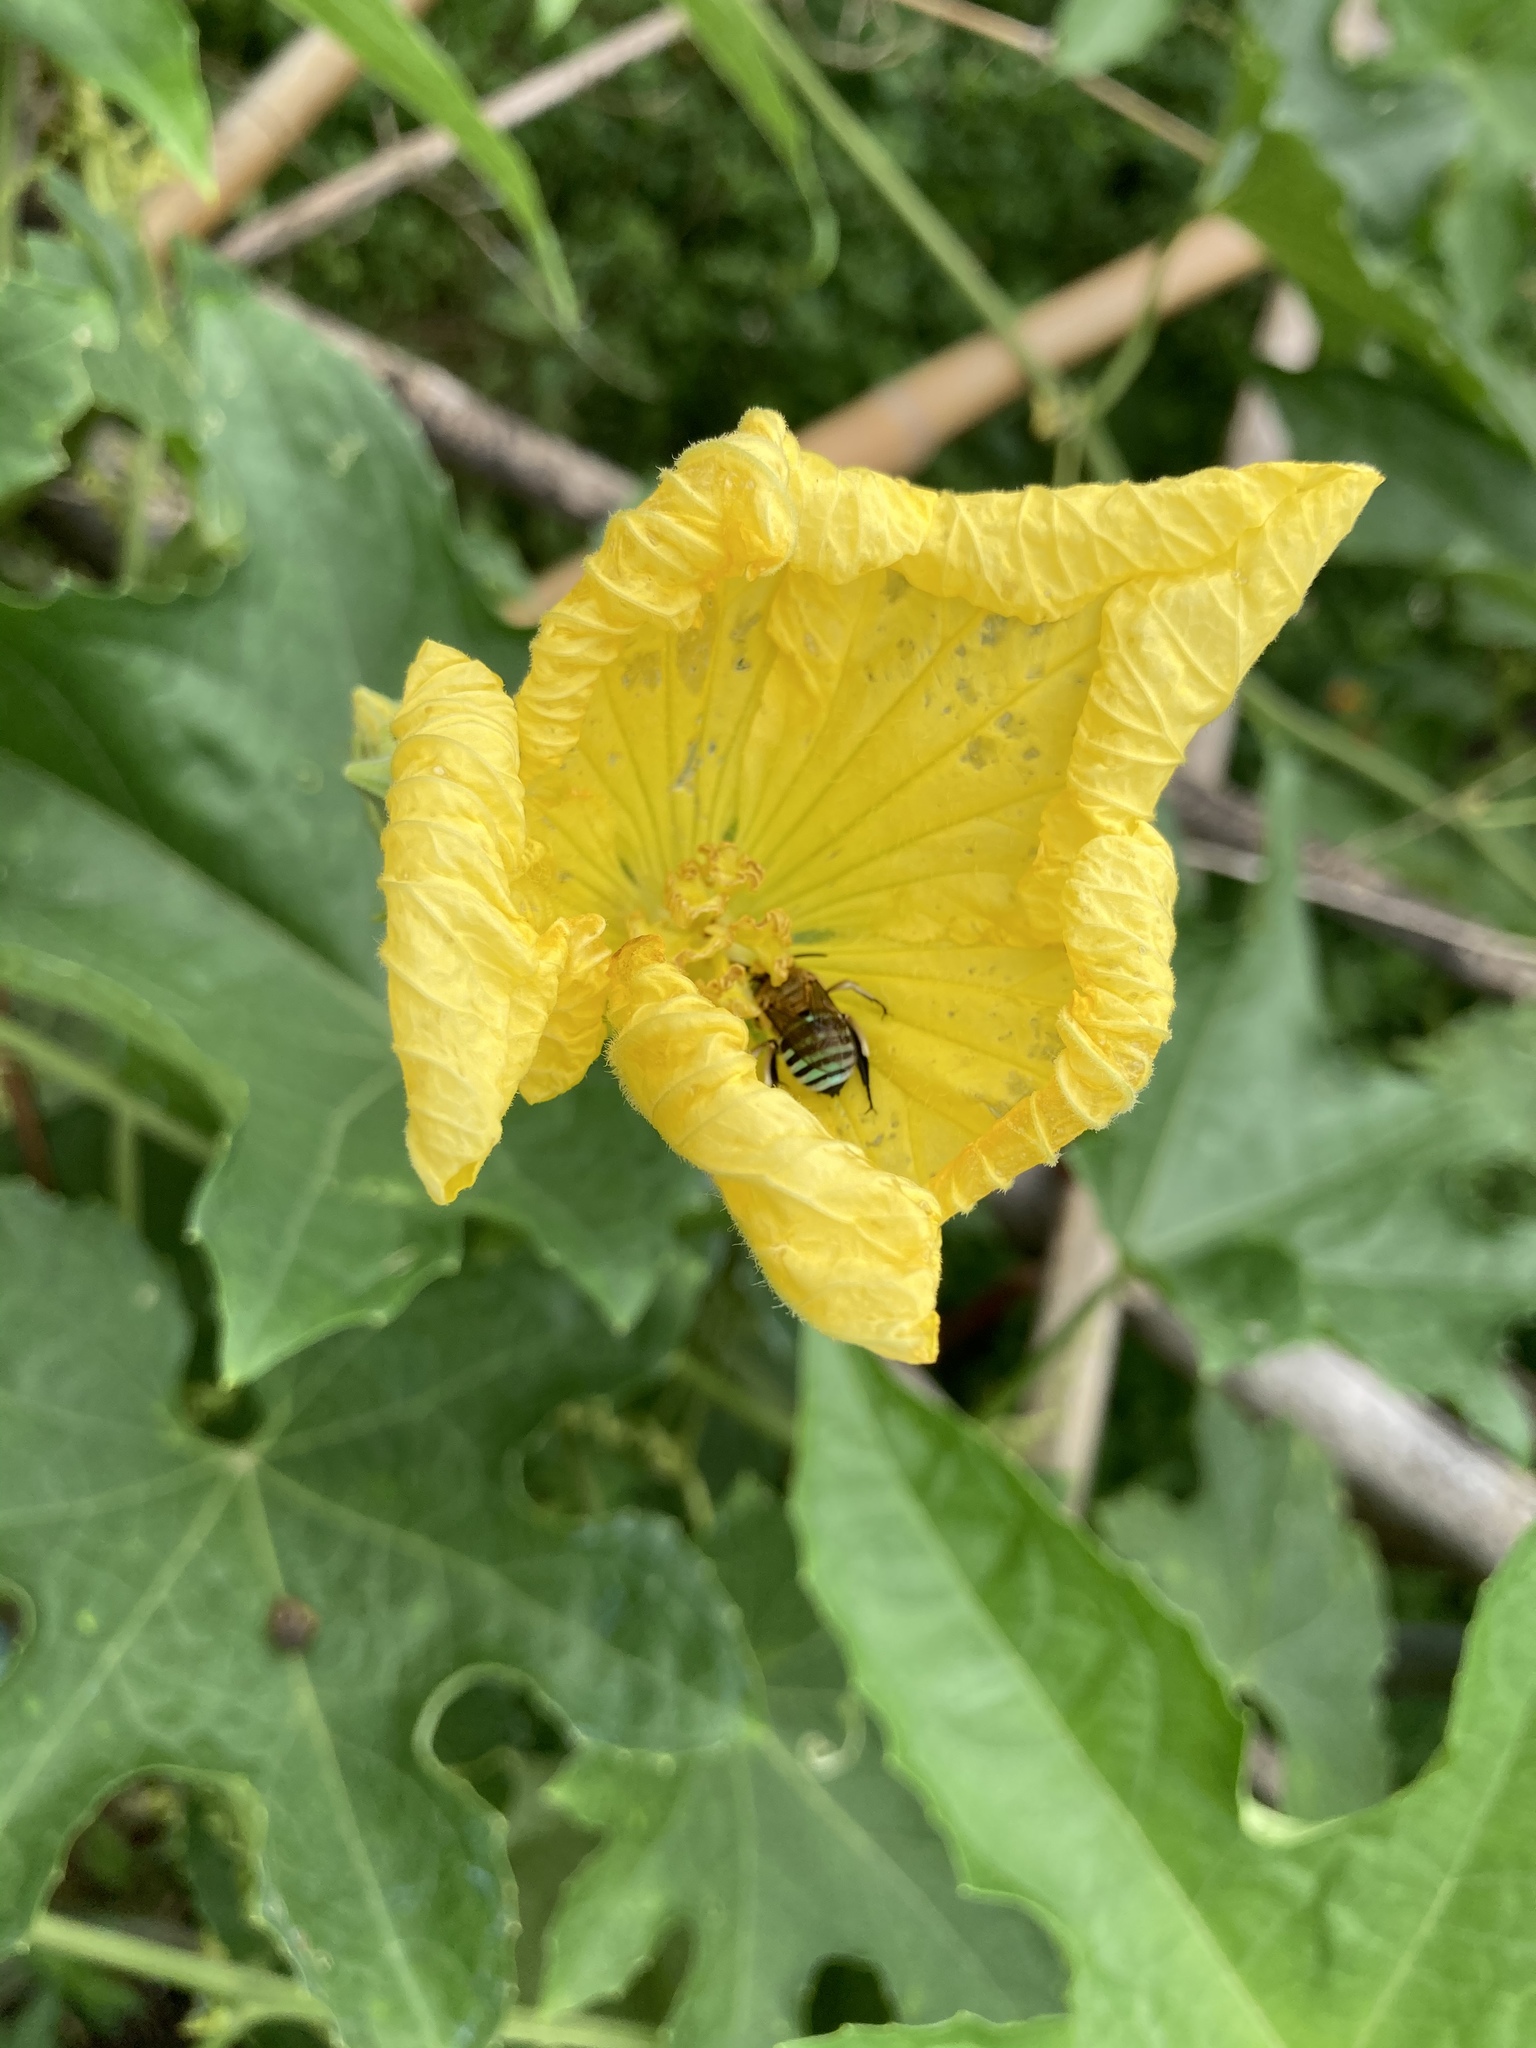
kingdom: Animalia
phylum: Arthropoda
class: Insecta
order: Hymenoptera
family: Apidae
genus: Amegilla
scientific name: Amegilla calceifera
